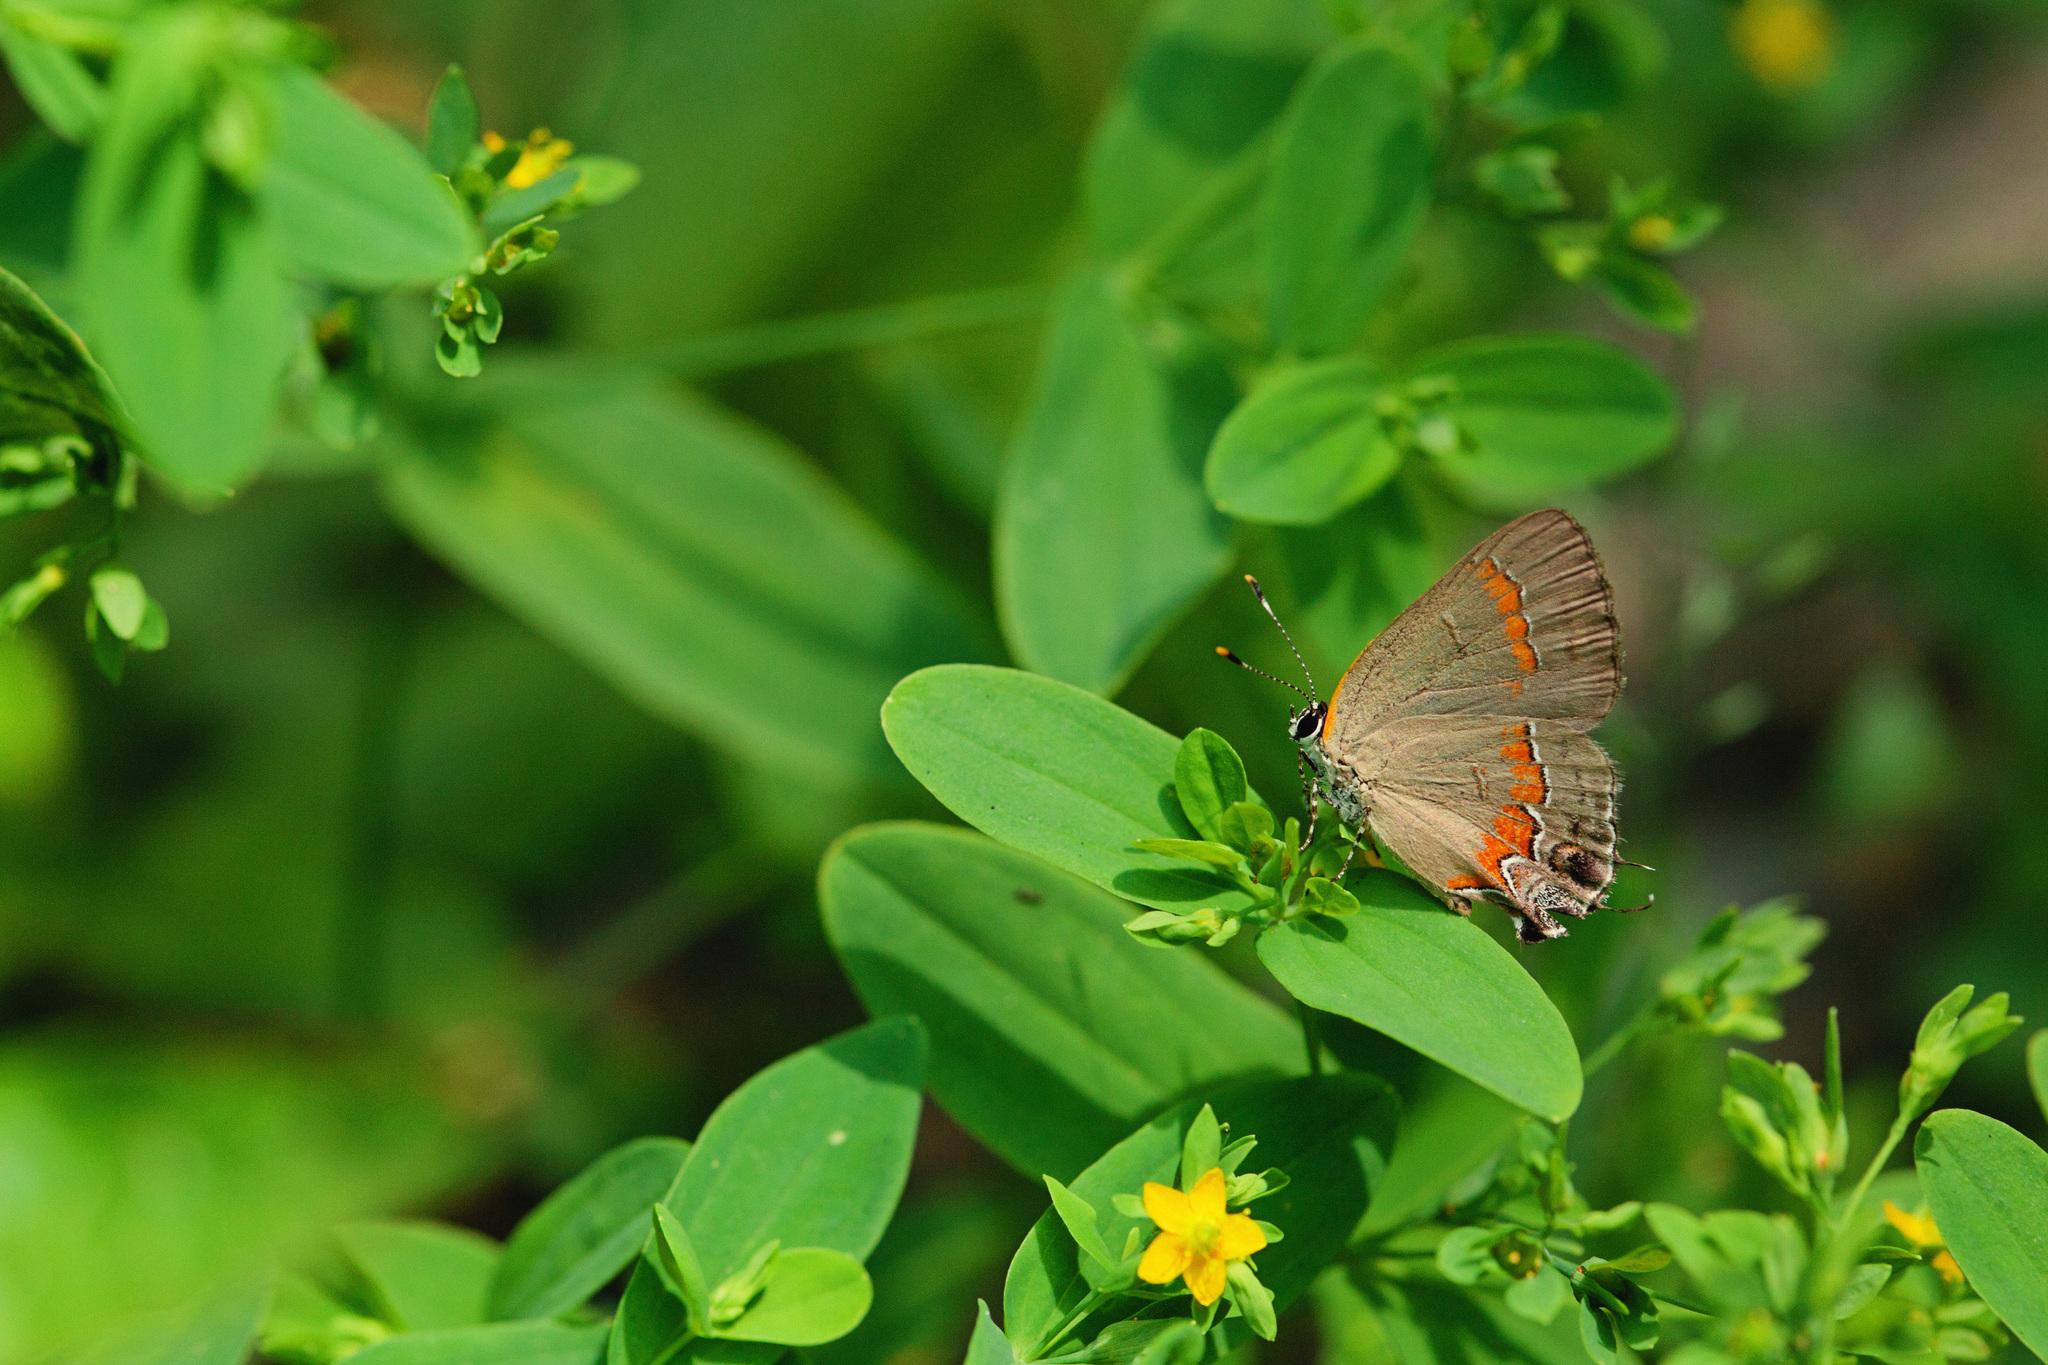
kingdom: Animalia
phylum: Arthropoda
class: Insecta
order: Lepidoptera
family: Lycaenidae
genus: Calycopis
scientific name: Calycopis cecrops
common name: Red-banded hairstreak
